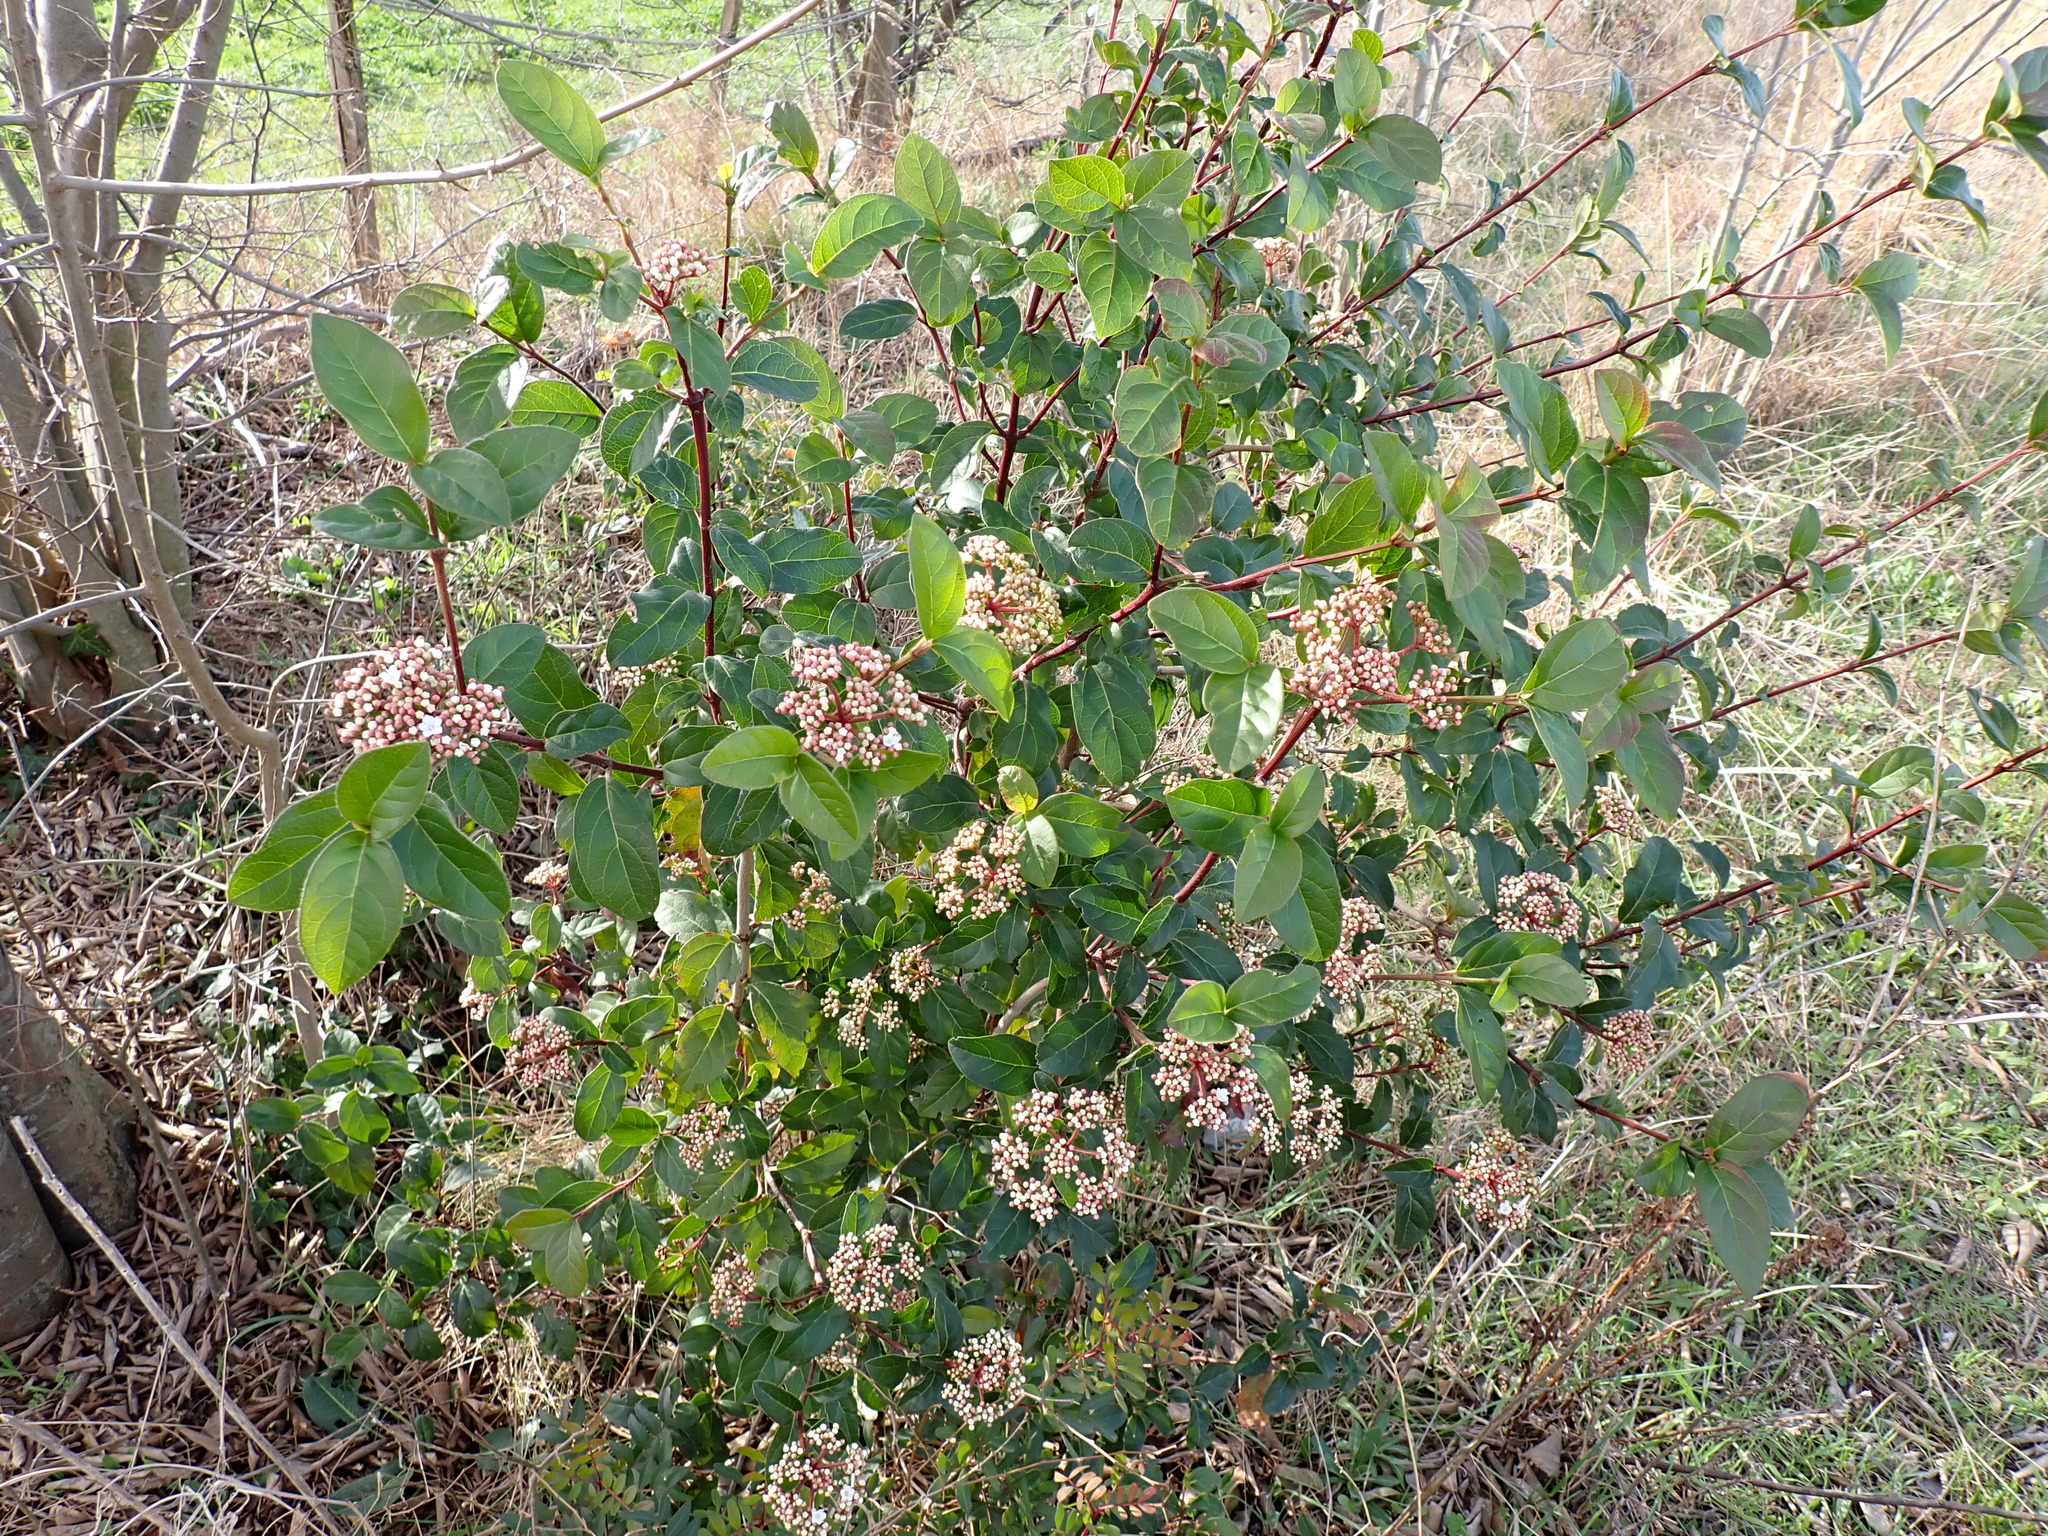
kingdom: Plantae
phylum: Tracheophyta
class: Magnoliopsida
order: Dipsacales
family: Viburnaceae
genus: Viburnum
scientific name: Viburnum tinus
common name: Laurustinus
